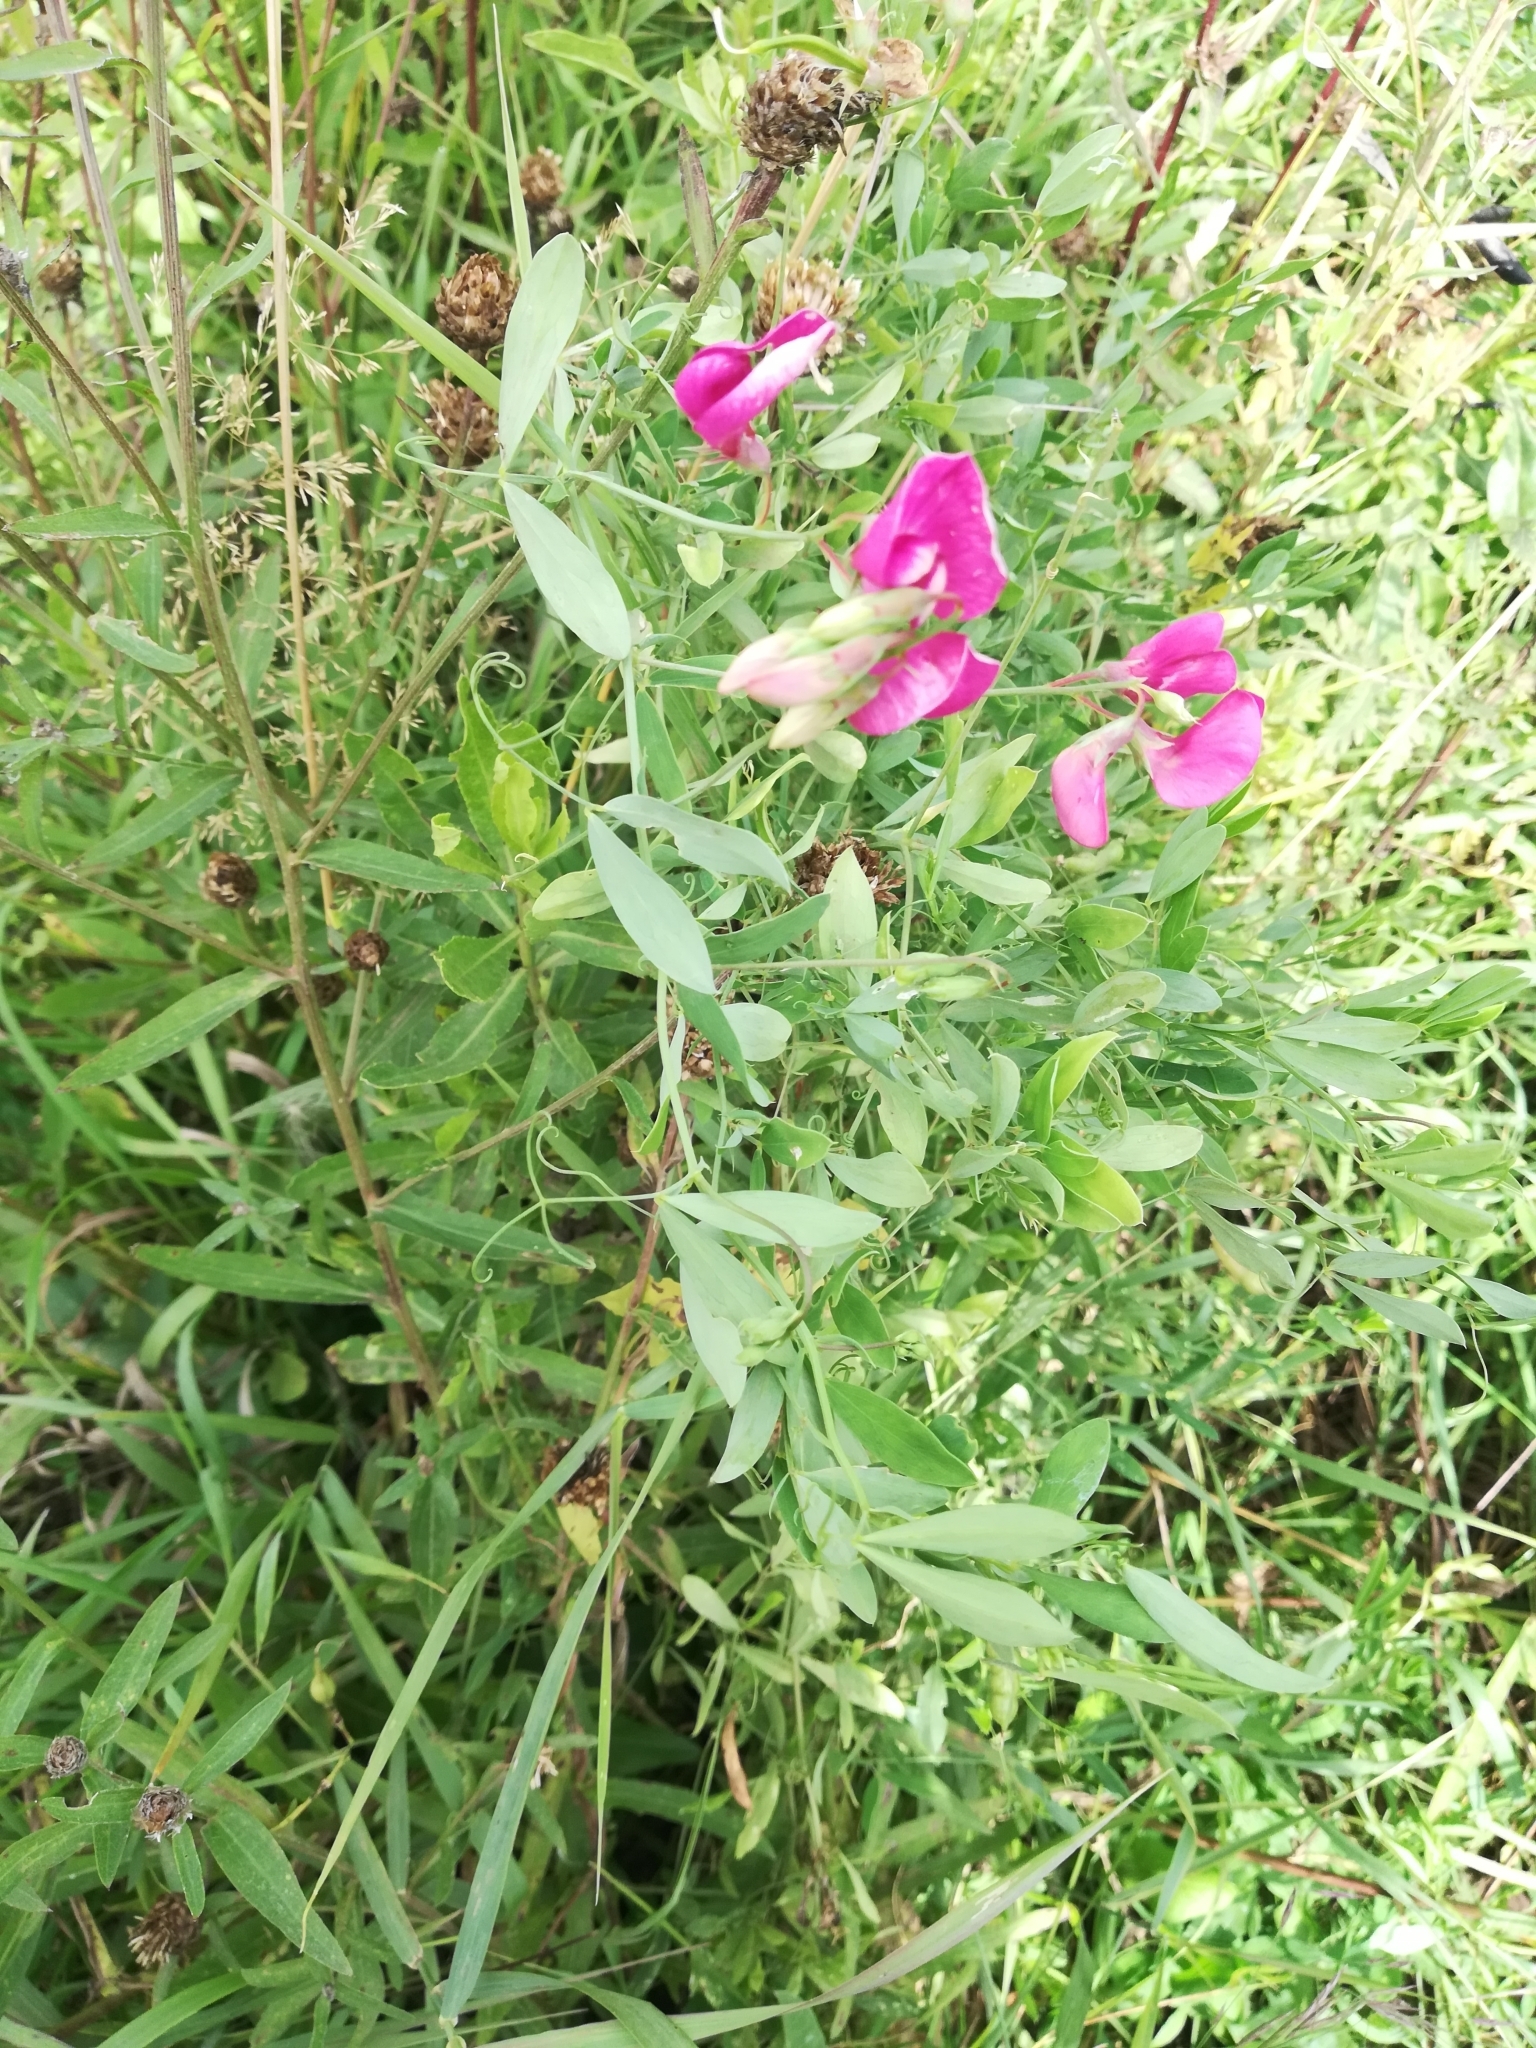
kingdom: Plantae
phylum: Tracheophyta
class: Magnoliopsida
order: Fabales
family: Fabaceae
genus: Lathyrus
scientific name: Lathyrus tuberosus
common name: Tuberous pea
